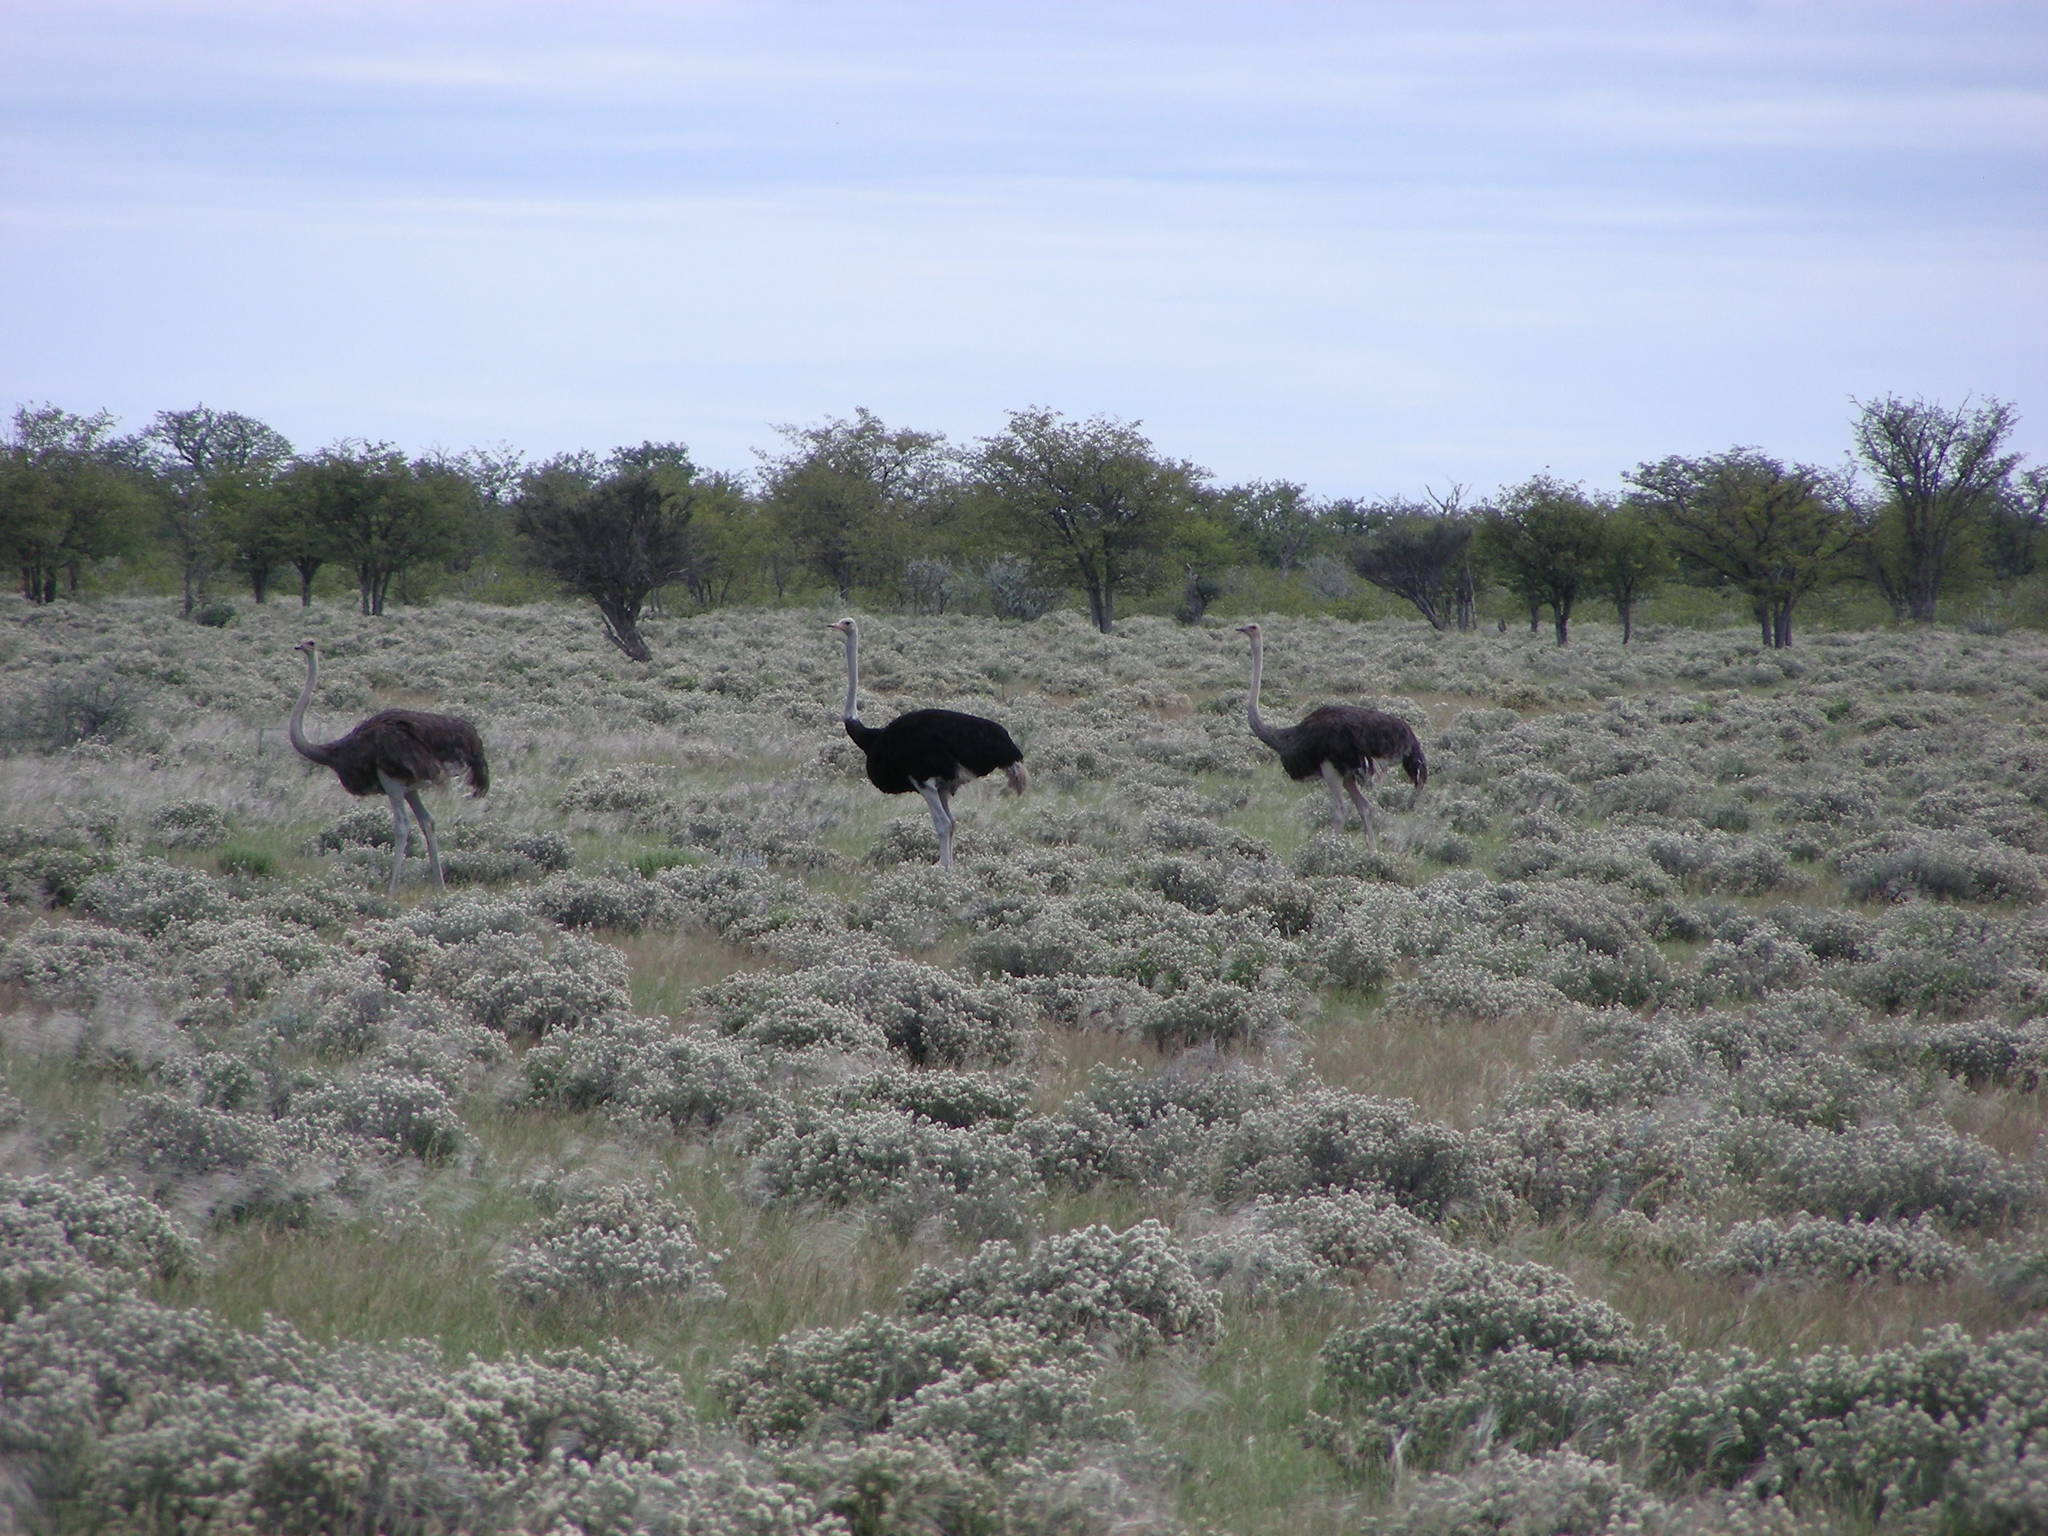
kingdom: Animalia
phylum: Chordata
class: Aves
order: Struthioniformes
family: Struthionidae
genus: Struthio
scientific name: Struthio camelus
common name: Common ostrich
